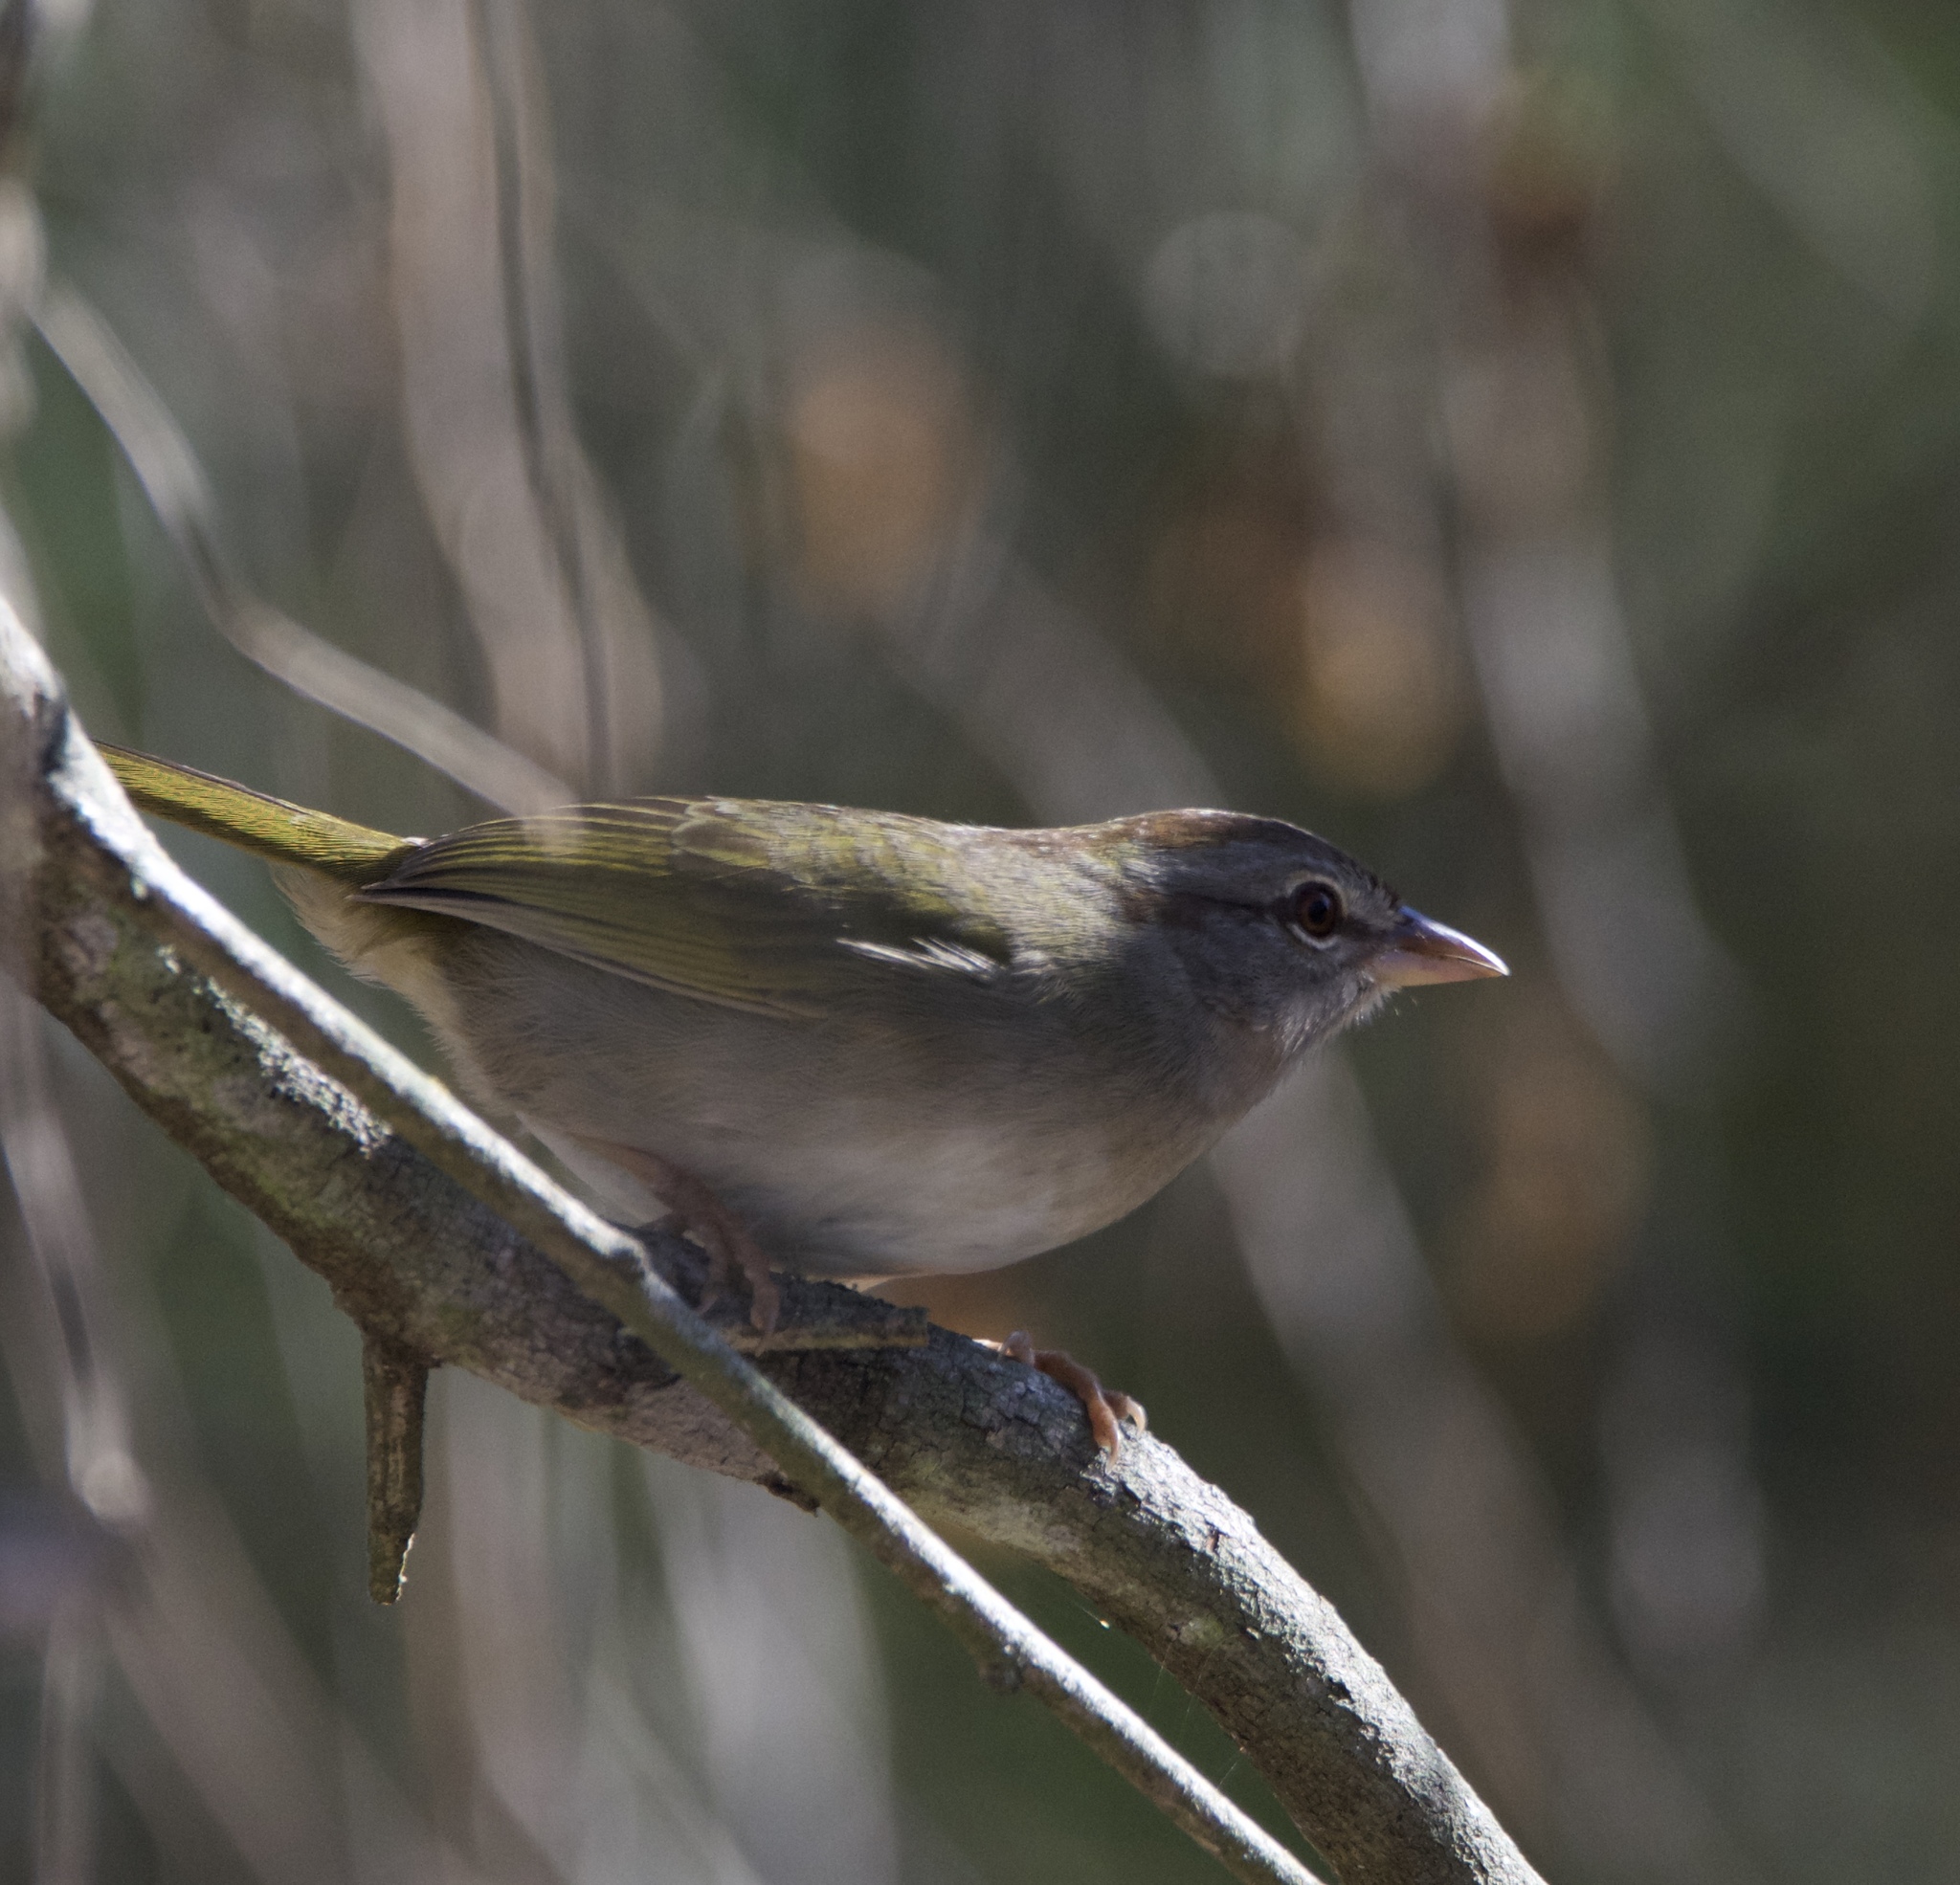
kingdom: Animalia
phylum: Chordata
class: Aves
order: Passeriformes
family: Passerellidae
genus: Arremonops
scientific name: Arremonops rufivirgatus
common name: Olive sparrow
